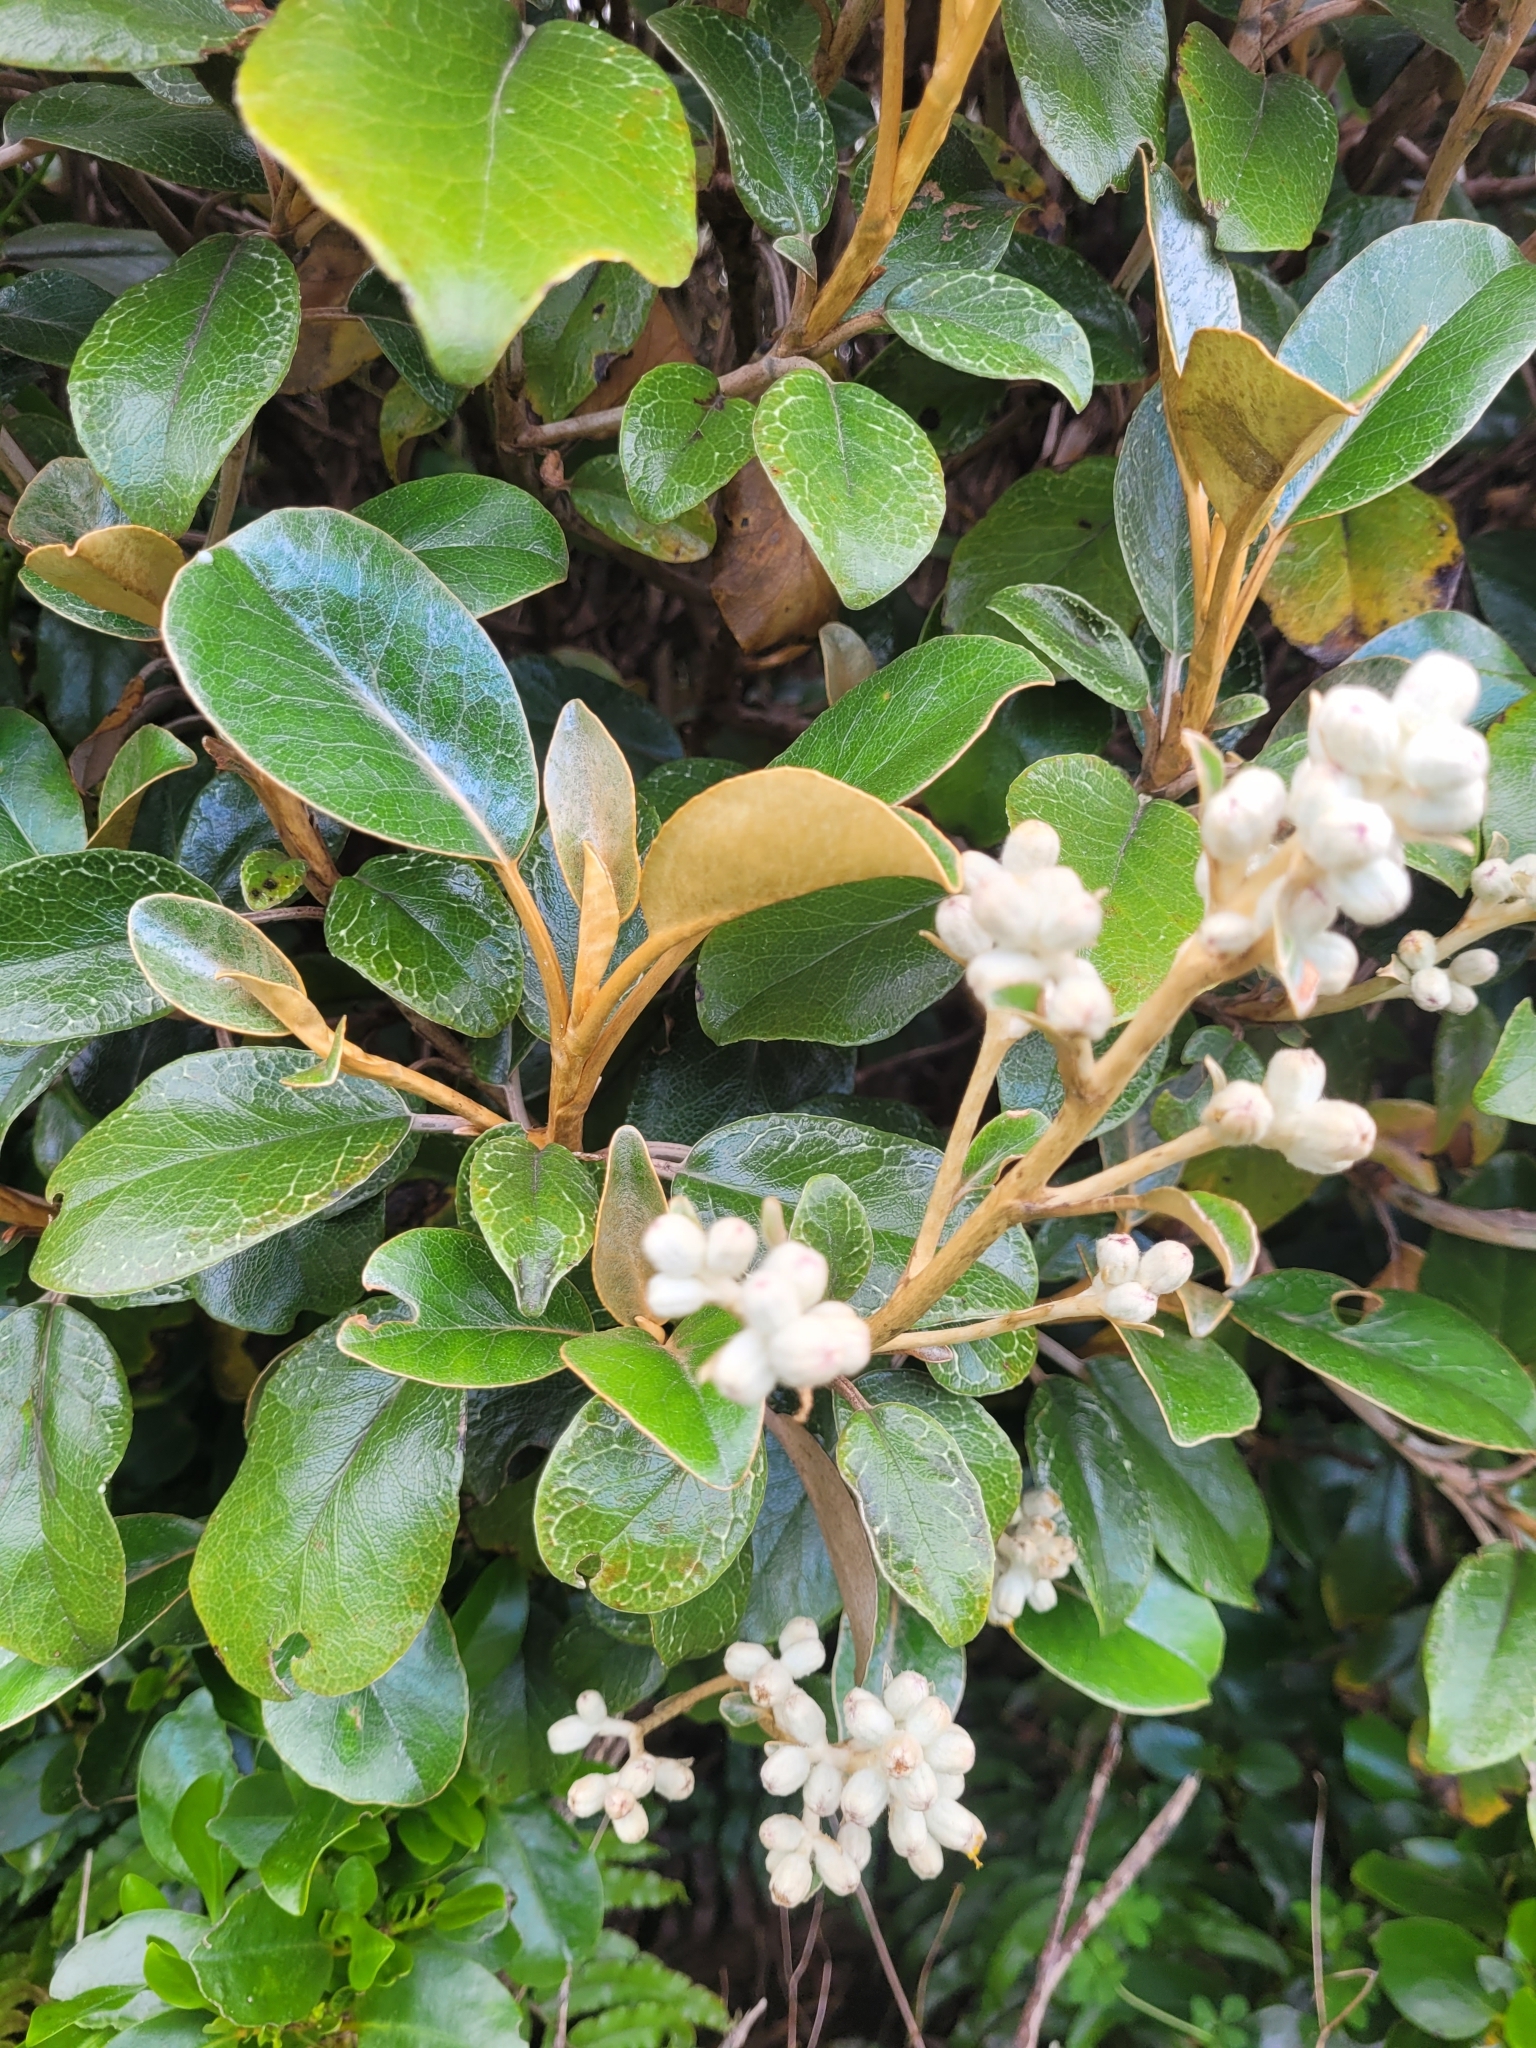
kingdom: Plantae
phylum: Tracheophyta
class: Magnoliopsida
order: Asterales
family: Asteraceae
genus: Brachyglottis
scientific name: Brachyglottis elaeagnifolia
